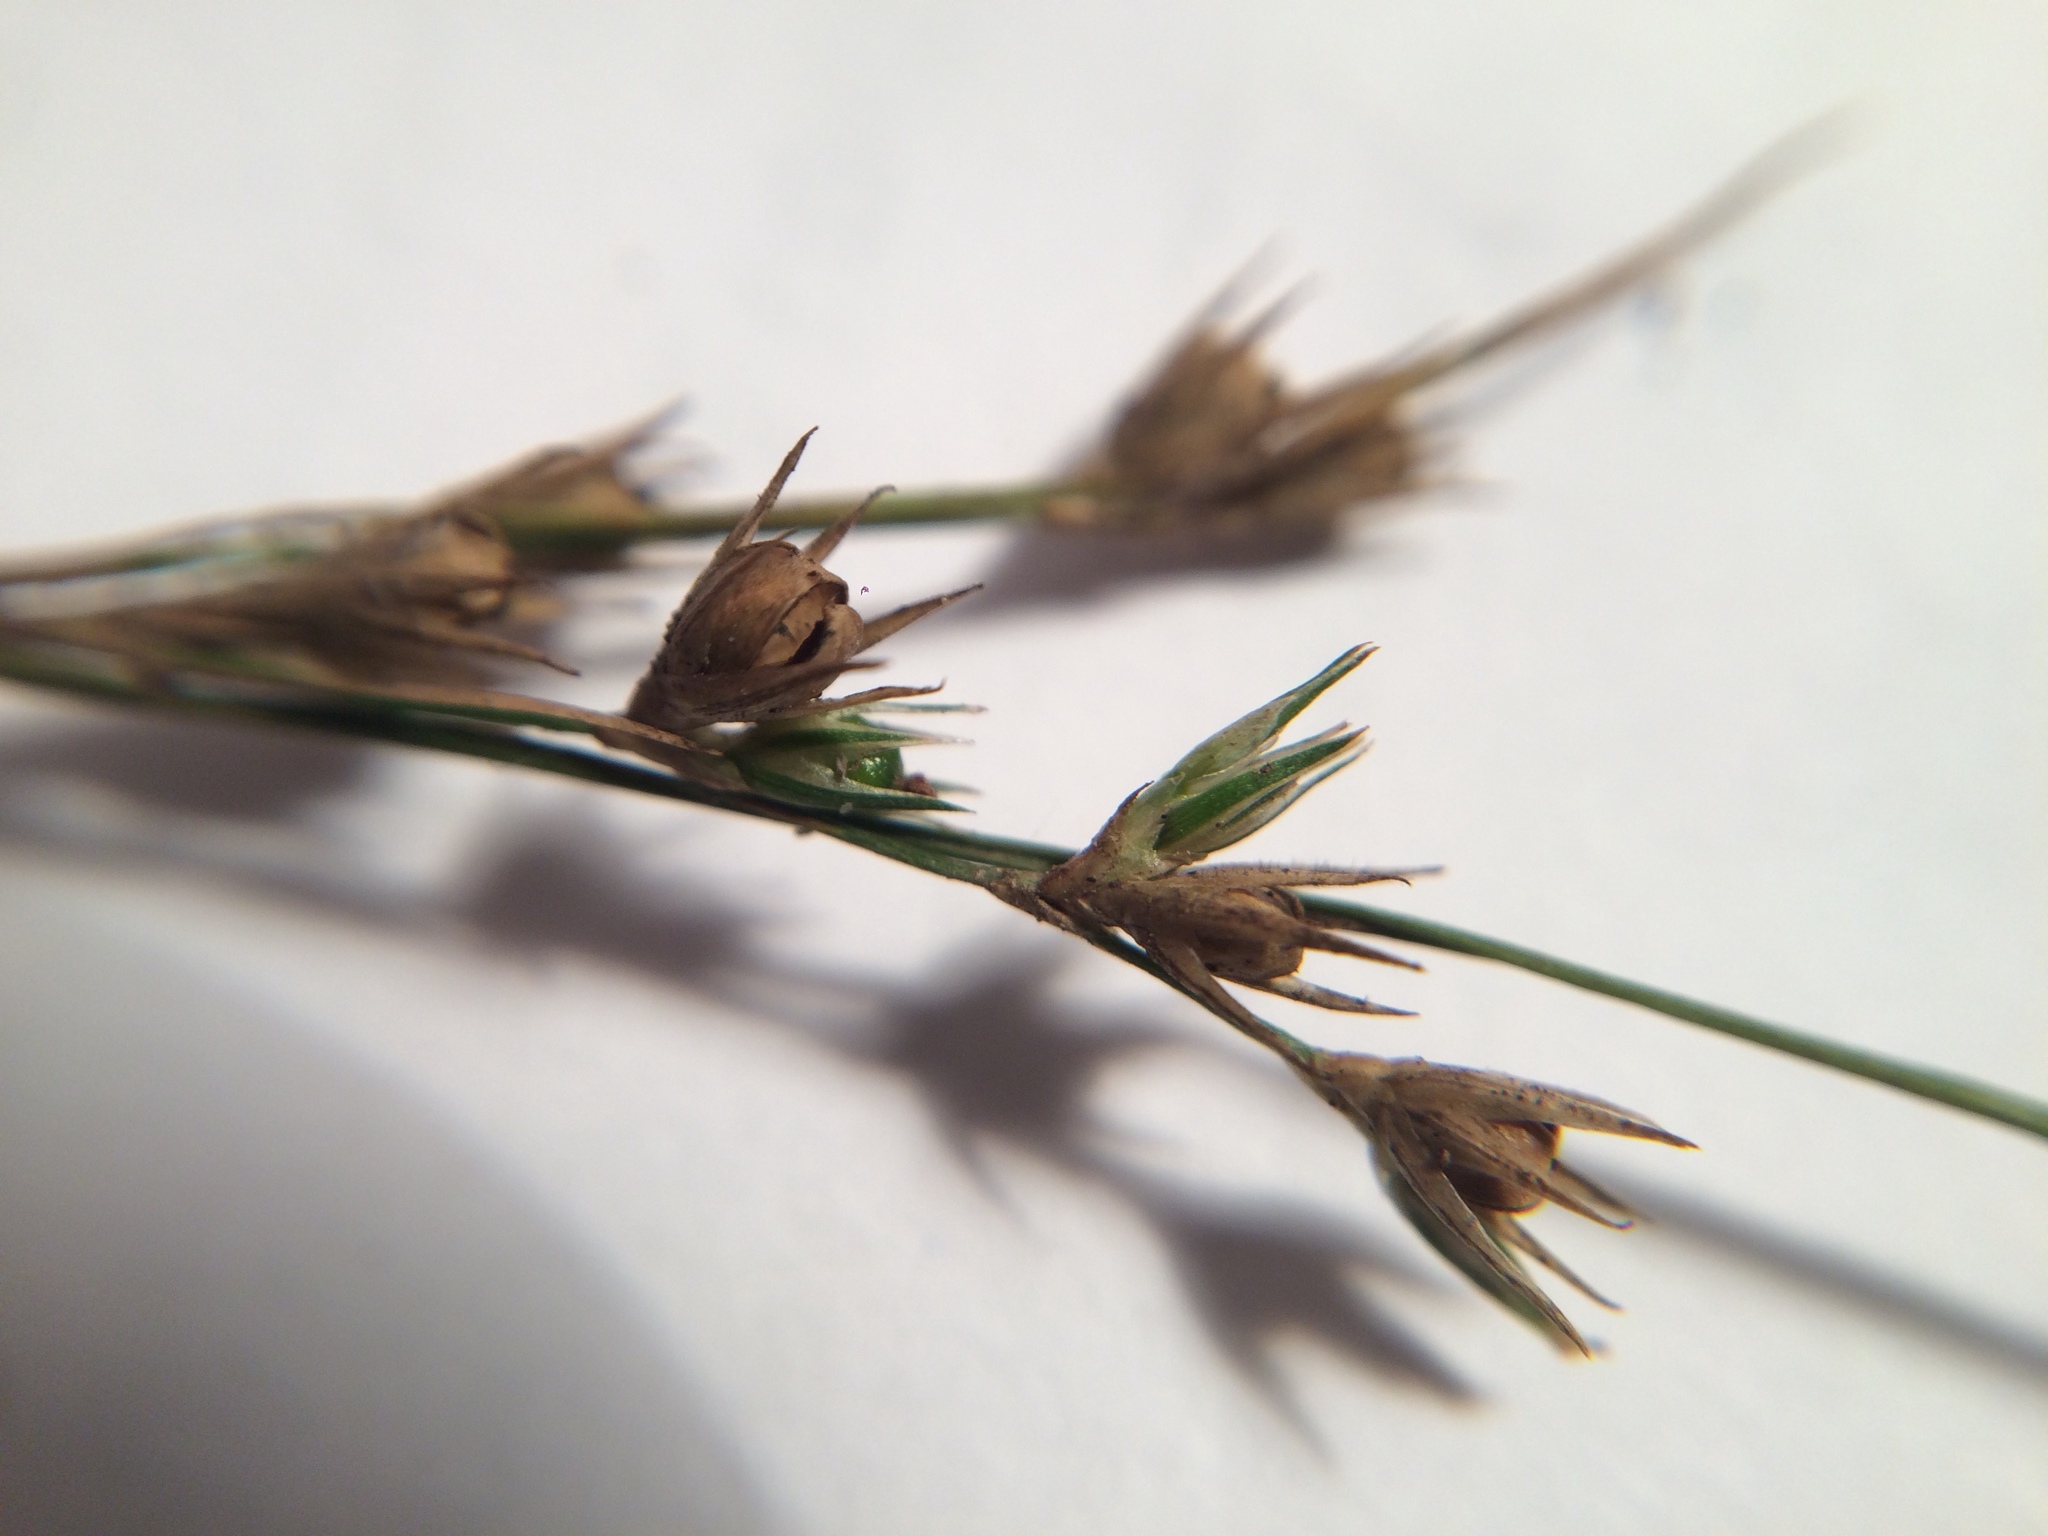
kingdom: Plantae
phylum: Tracheophyta
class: Liliopsida
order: Poales
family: Juncaceae
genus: Juncus
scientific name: Juncus tenuis
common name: Slender rush
